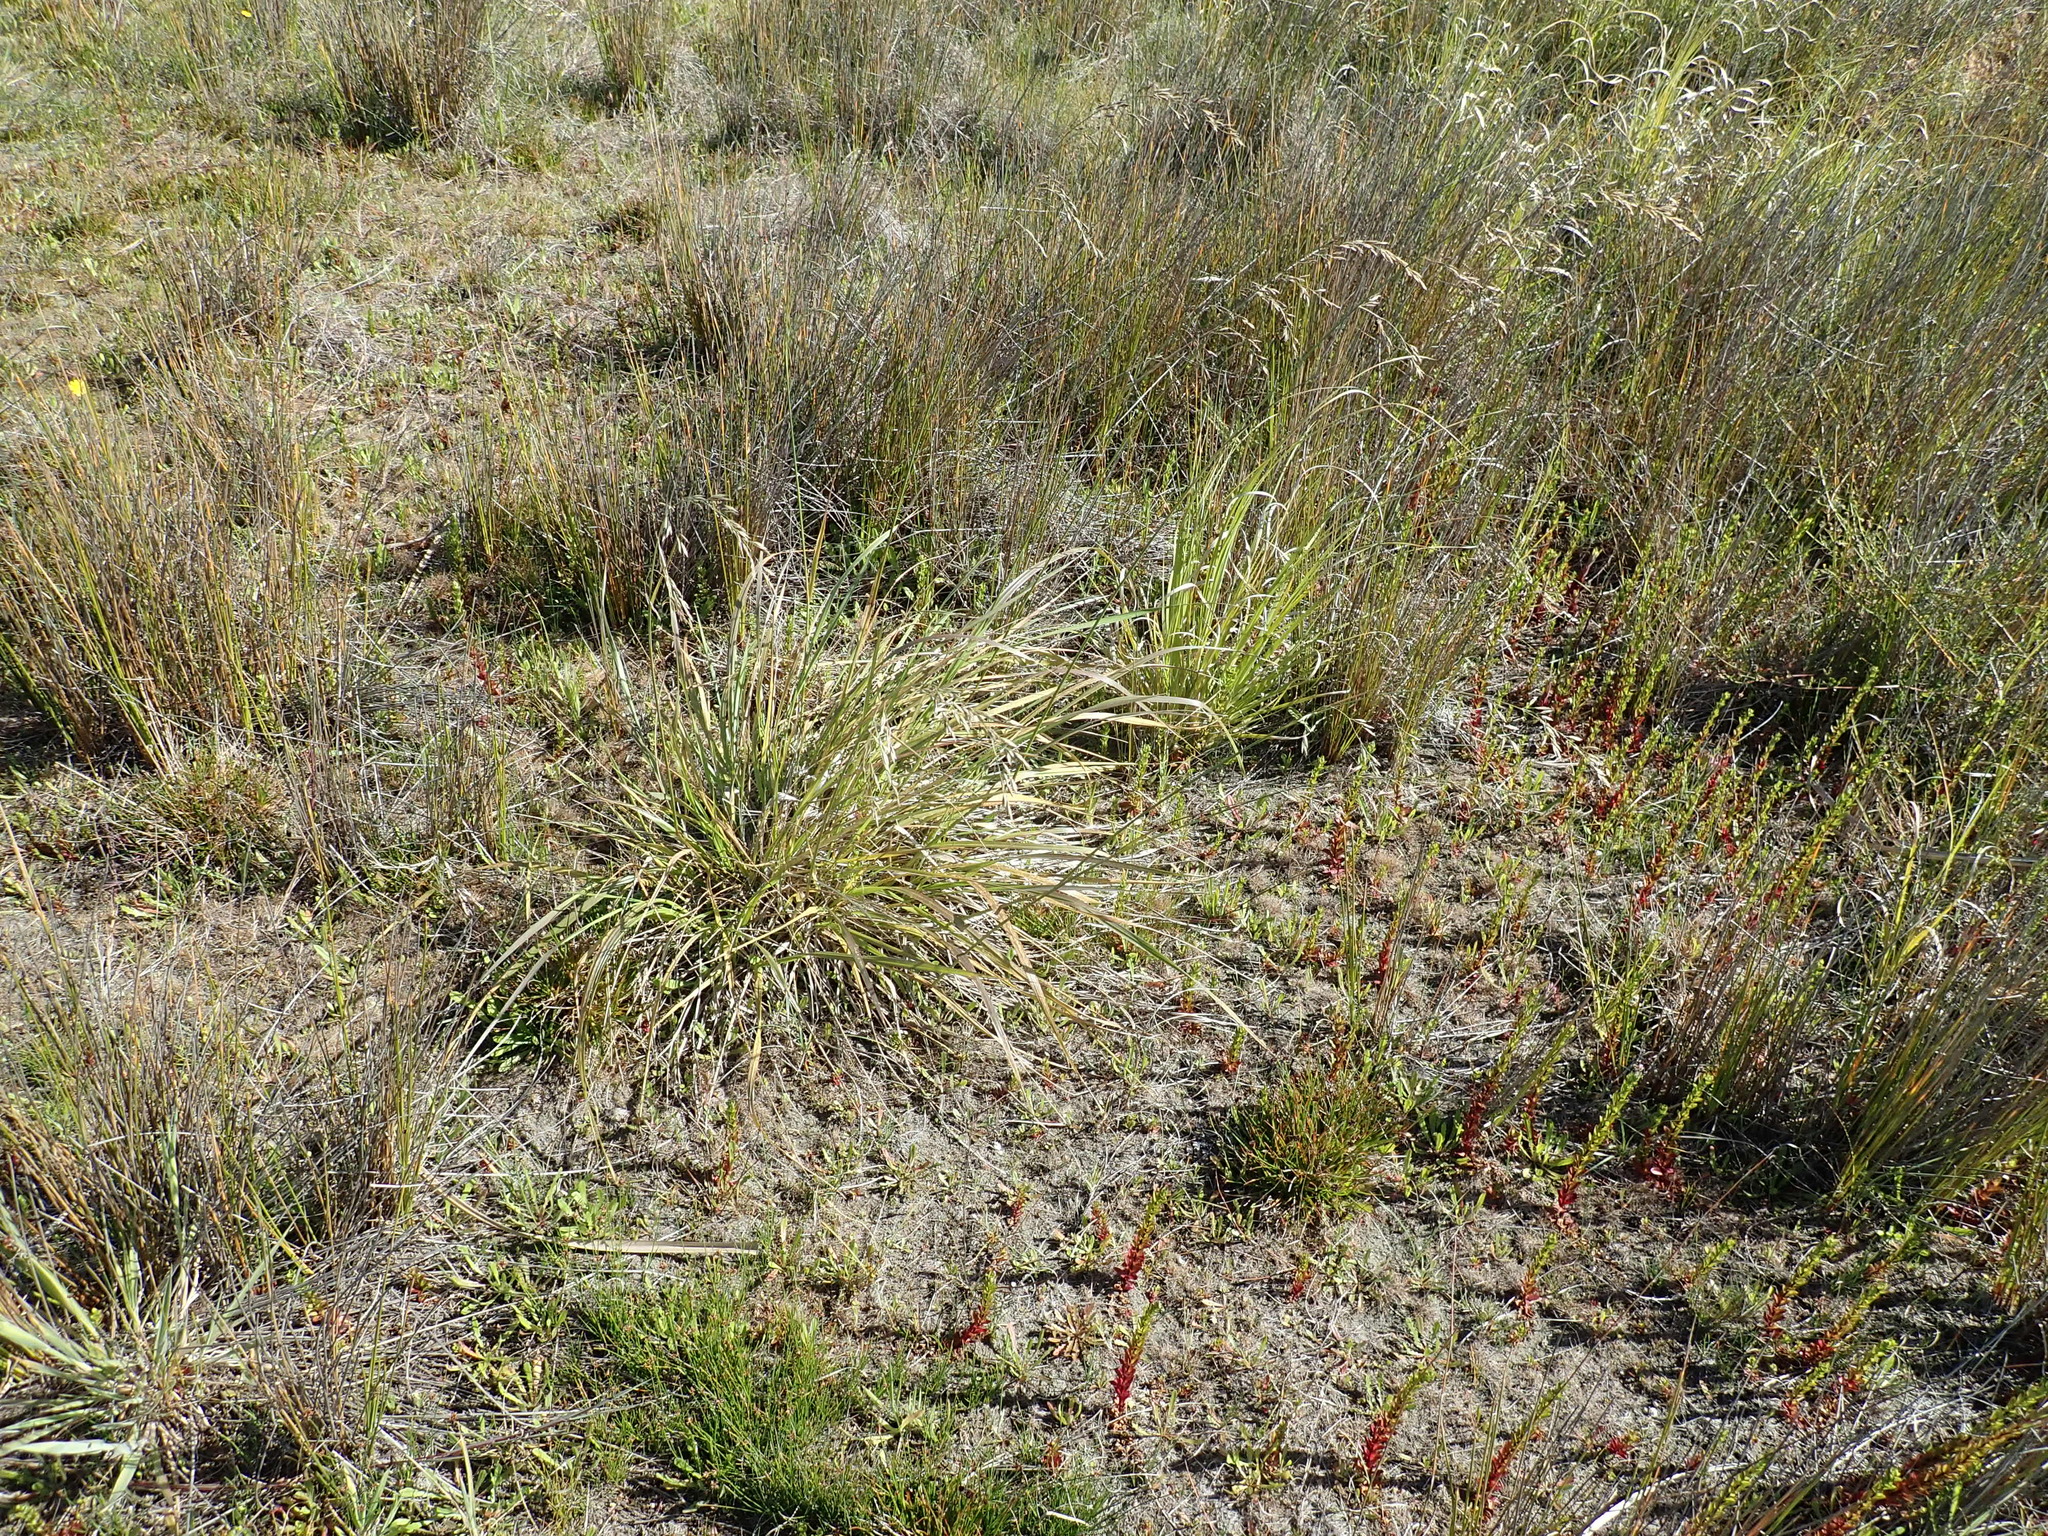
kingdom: Plantae
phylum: Tracheophyta
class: Liliopsida
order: Poales
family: Poaceae
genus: Lolium
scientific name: Lolium arundinaceum
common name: Reed fescue
